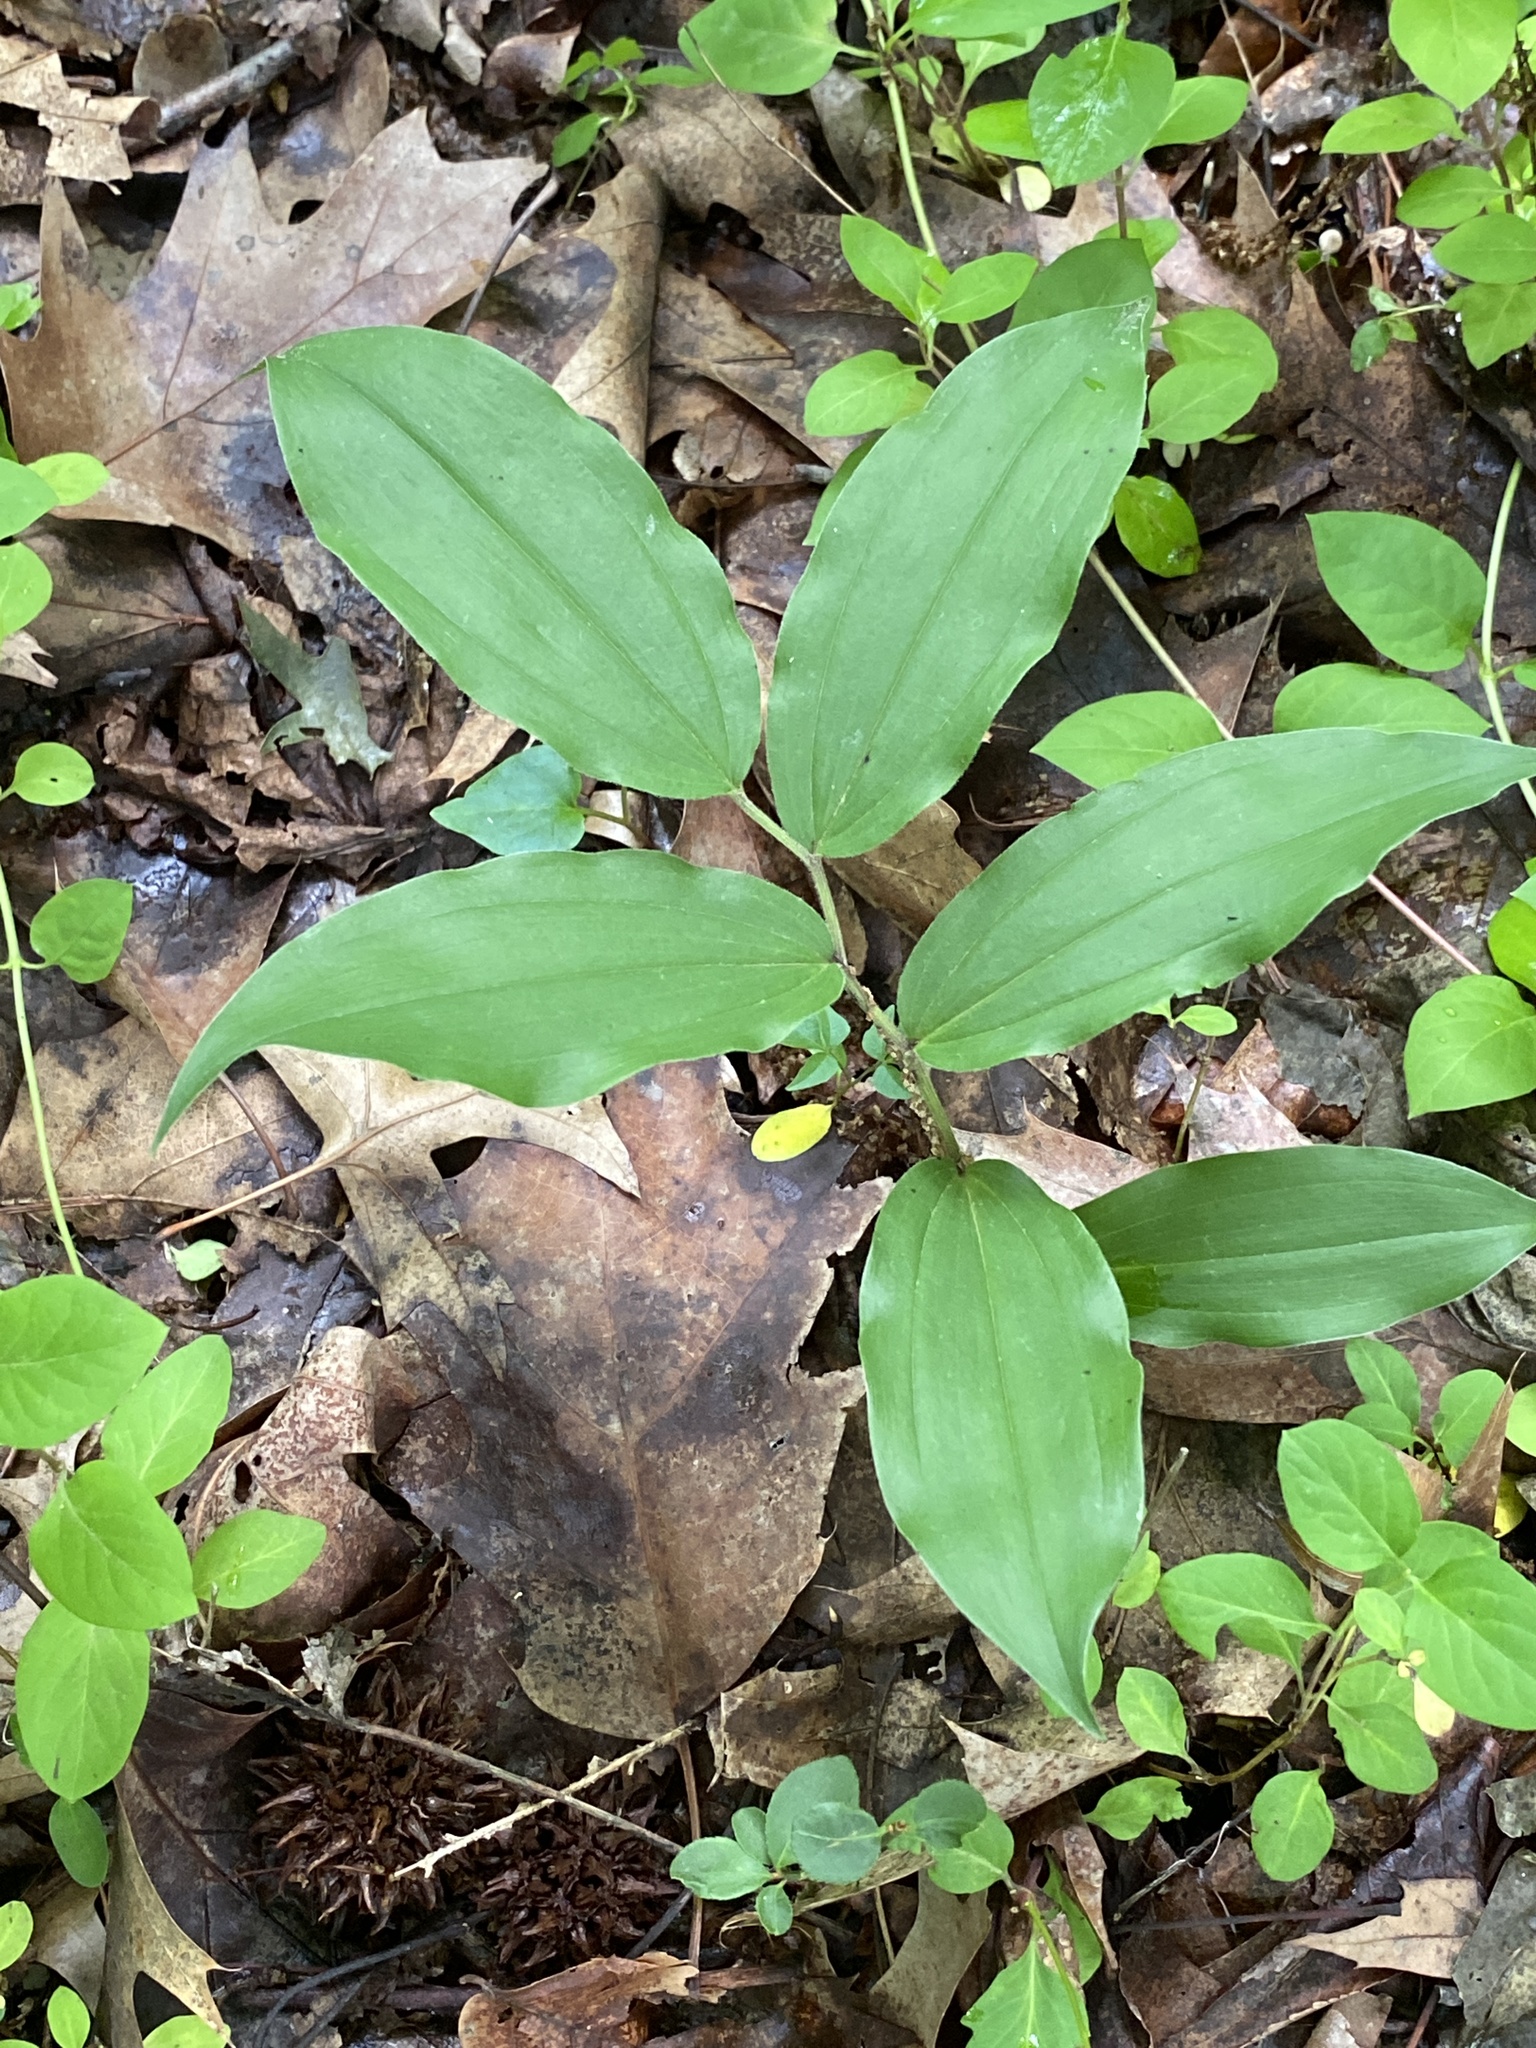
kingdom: Plantae
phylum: Tracheophyta
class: Liliopsida
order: Asparagales
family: Asparagaceae
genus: Maianthemum
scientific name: Maianthemum racemosum
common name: False spikenard
